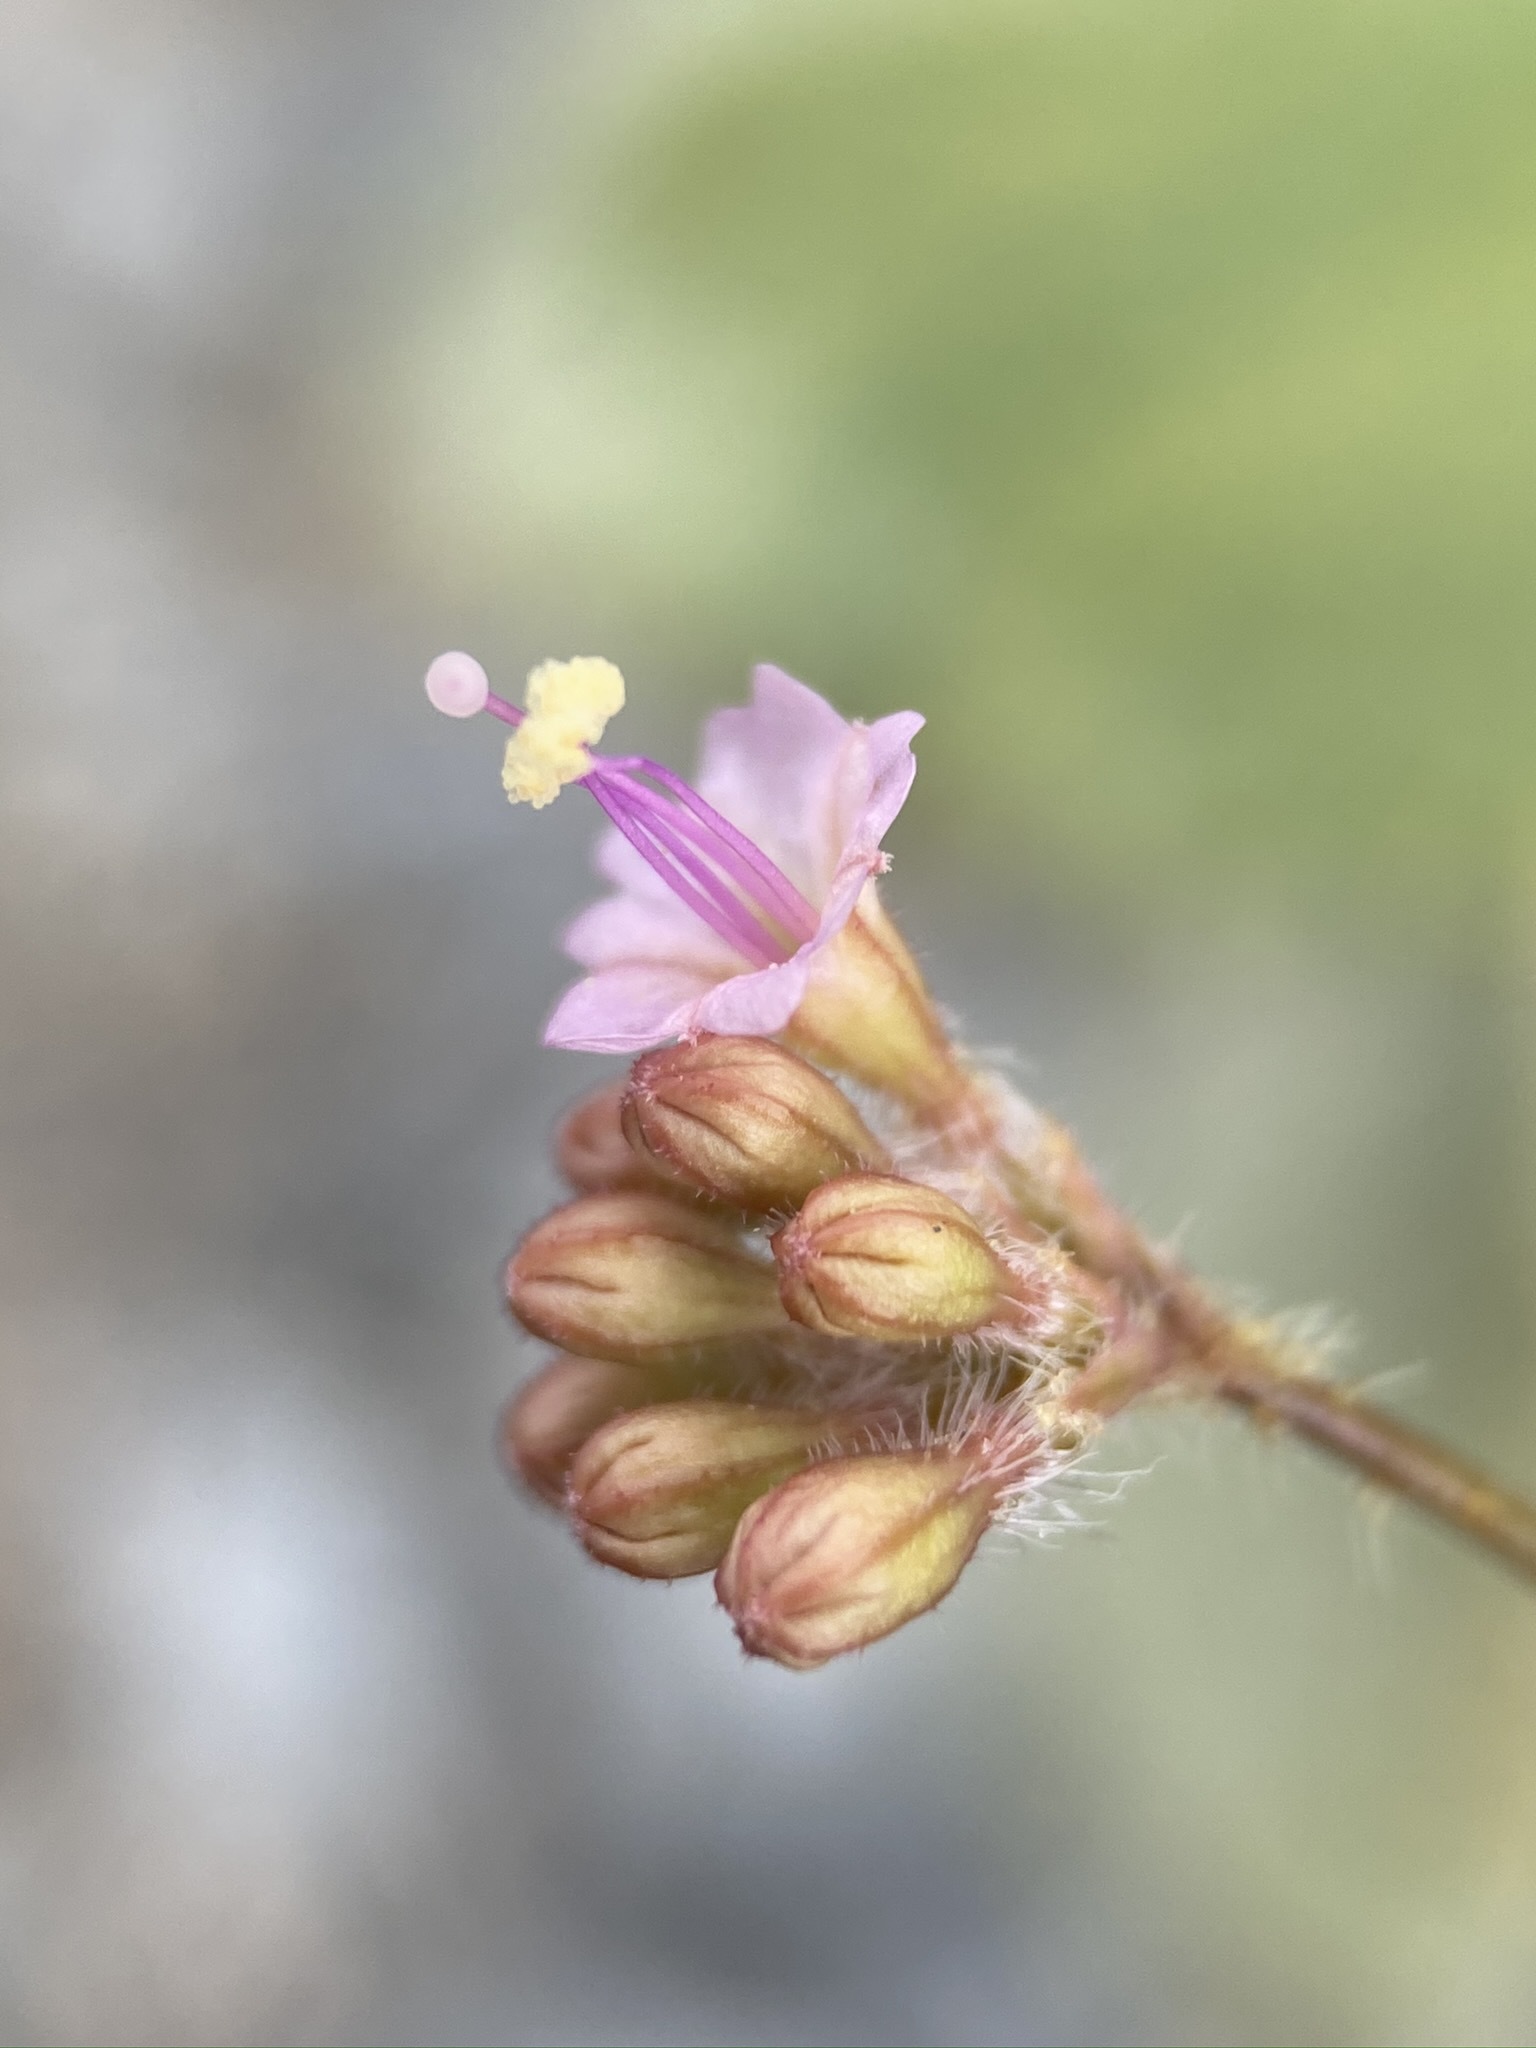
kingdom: Plantae
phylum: Tracheophyta
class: Magnoliopsida
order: Caryophyllales
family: Nyctaginaceae
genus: Anulocaulis
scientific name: Anulocaulis annulatus
